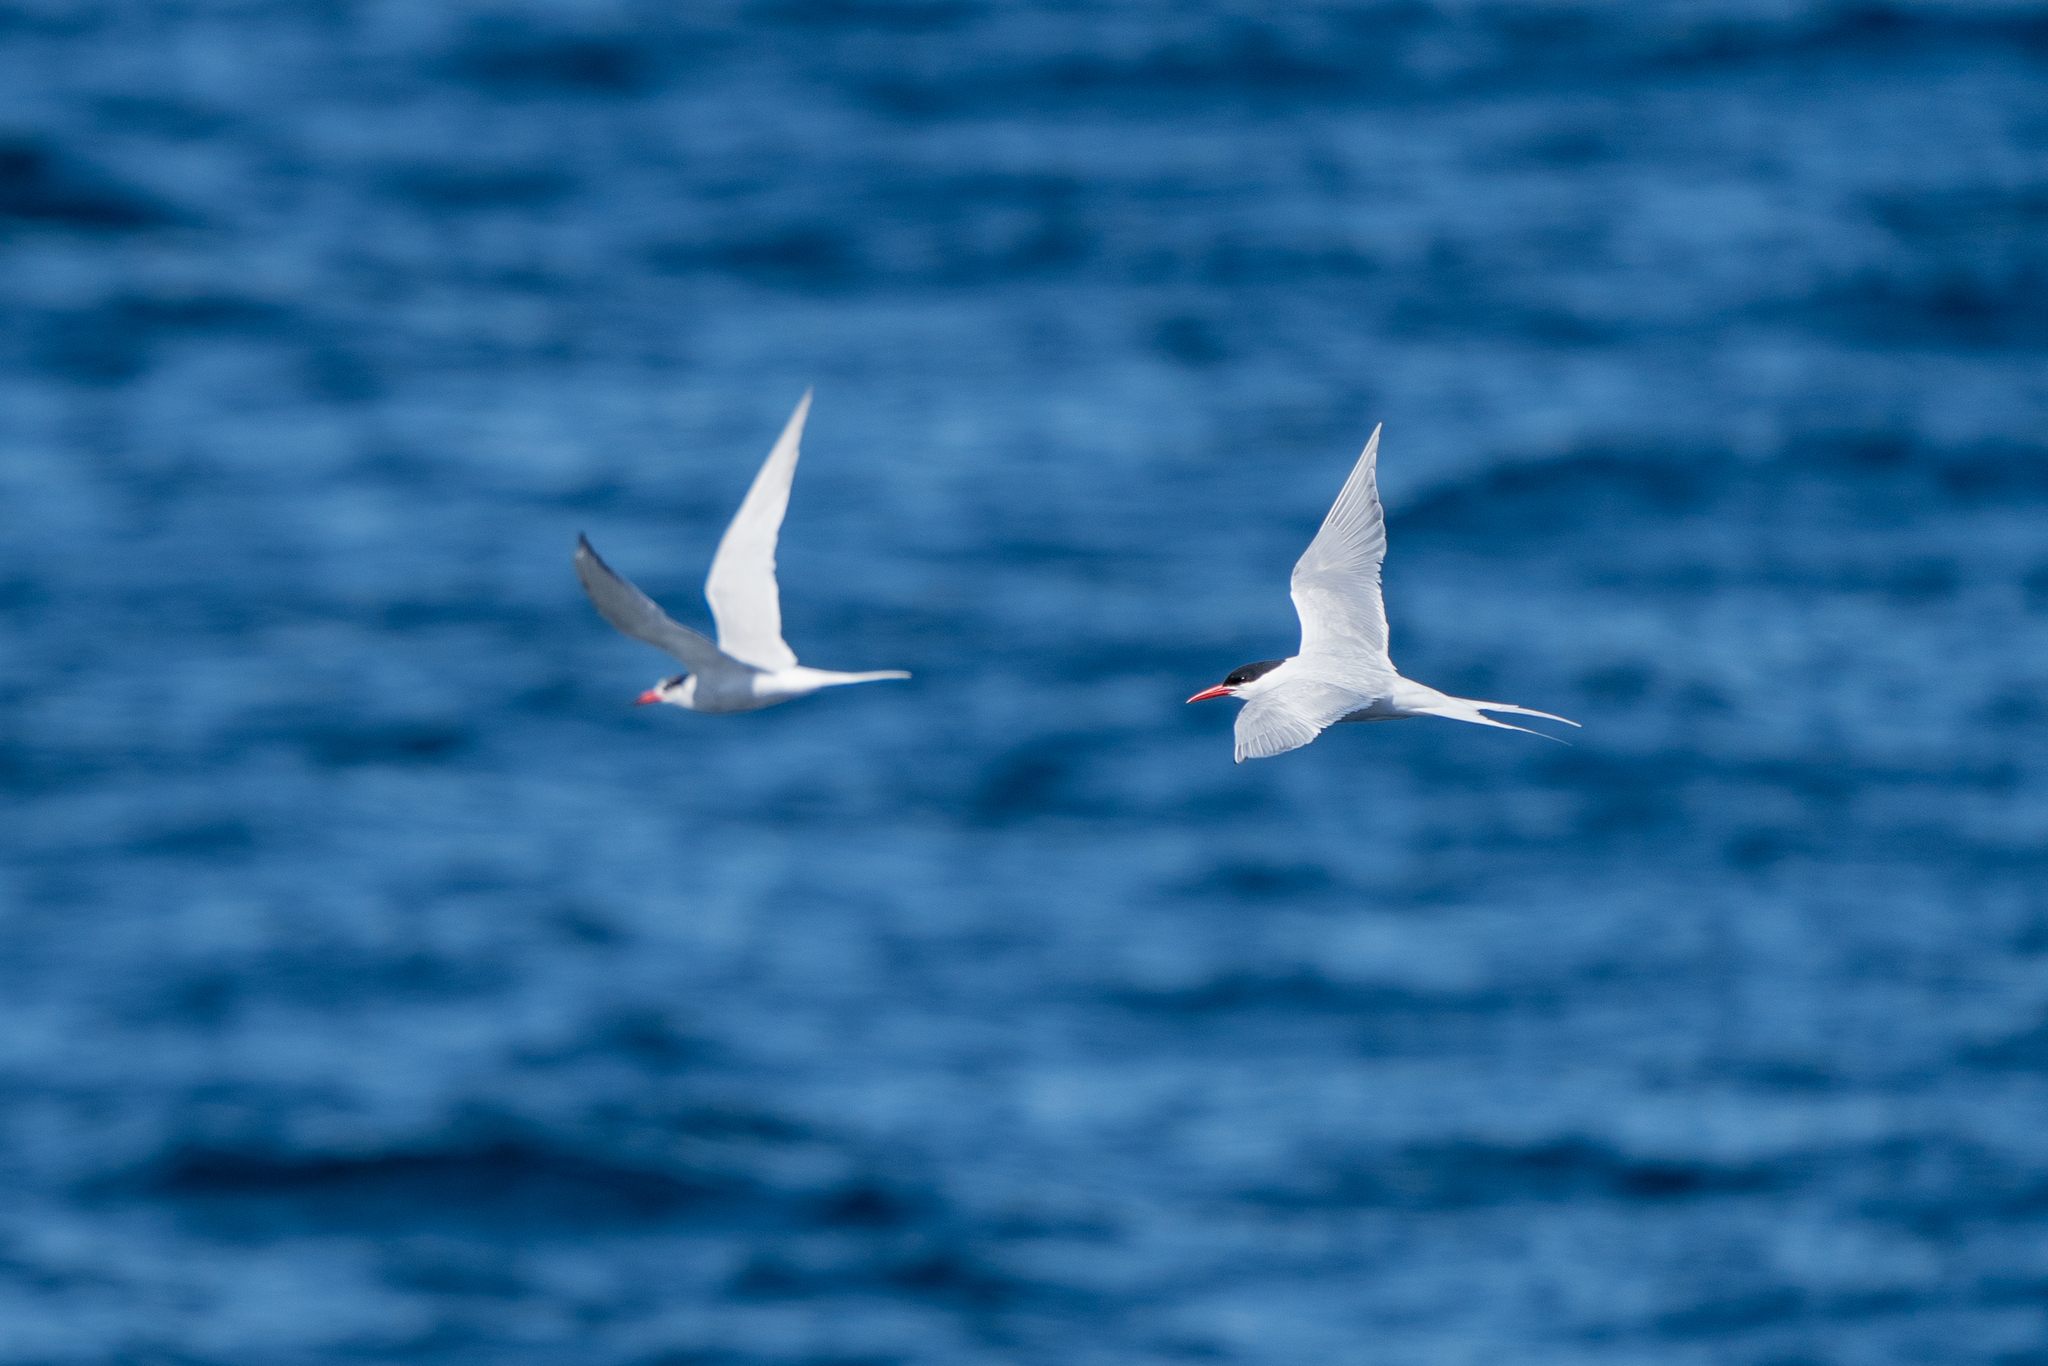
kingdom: Animalia
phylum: Chordata
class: Aves
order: Charadriiformes
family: Laridae
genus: Sterna
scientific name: Sterna hirundinacea
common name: South american tern
